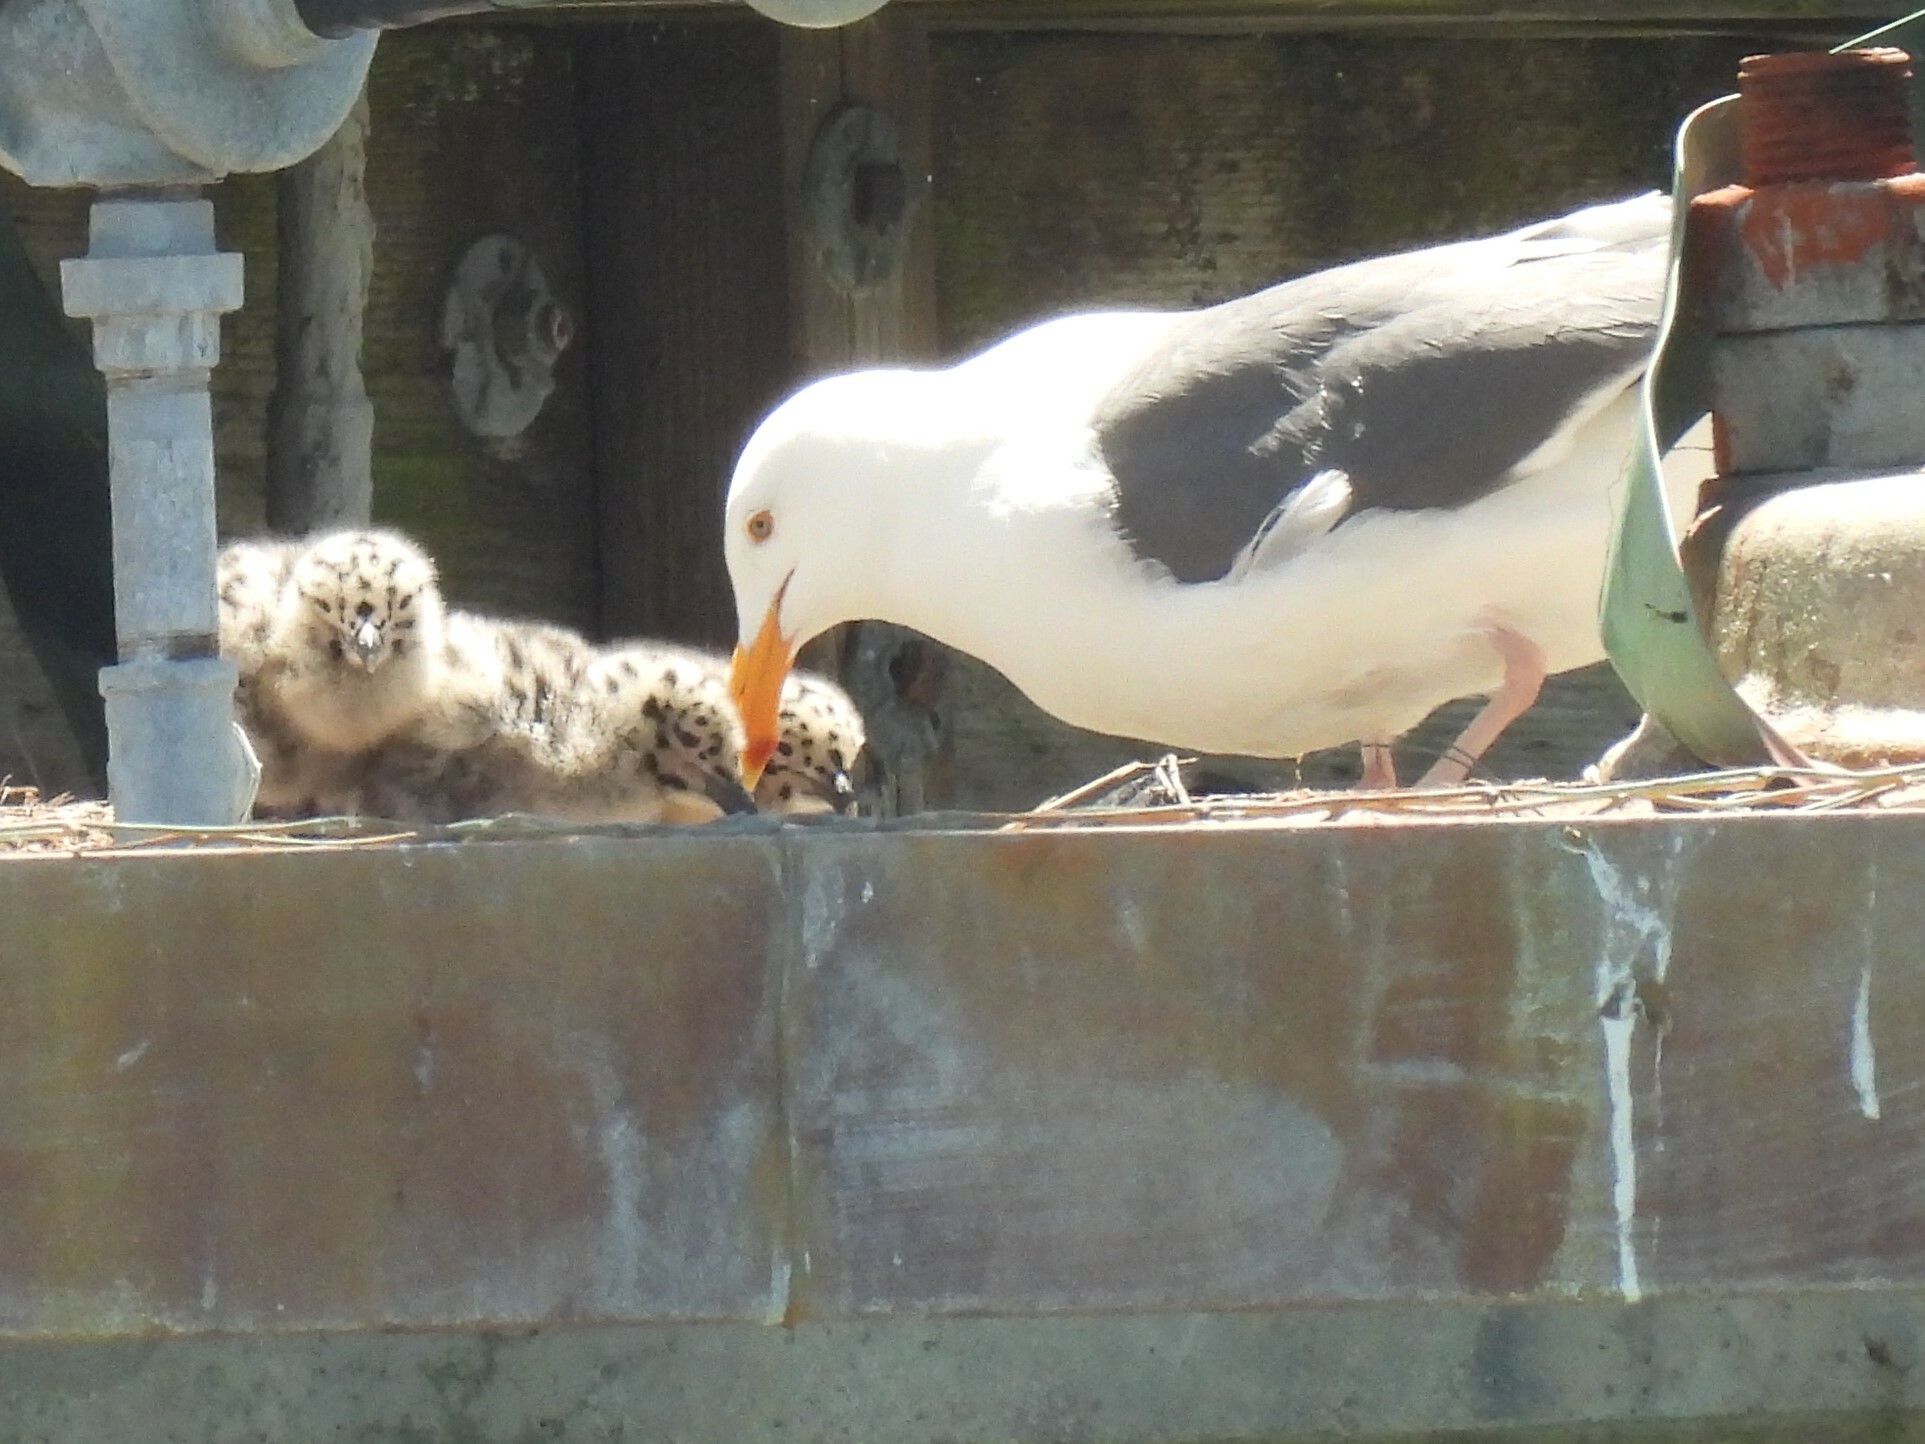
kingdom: Animalia
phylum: Chordata
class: Aves
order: Charadriiformes
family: Laridae
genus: Larus
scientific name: Larus occidentalis
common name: Western gull
